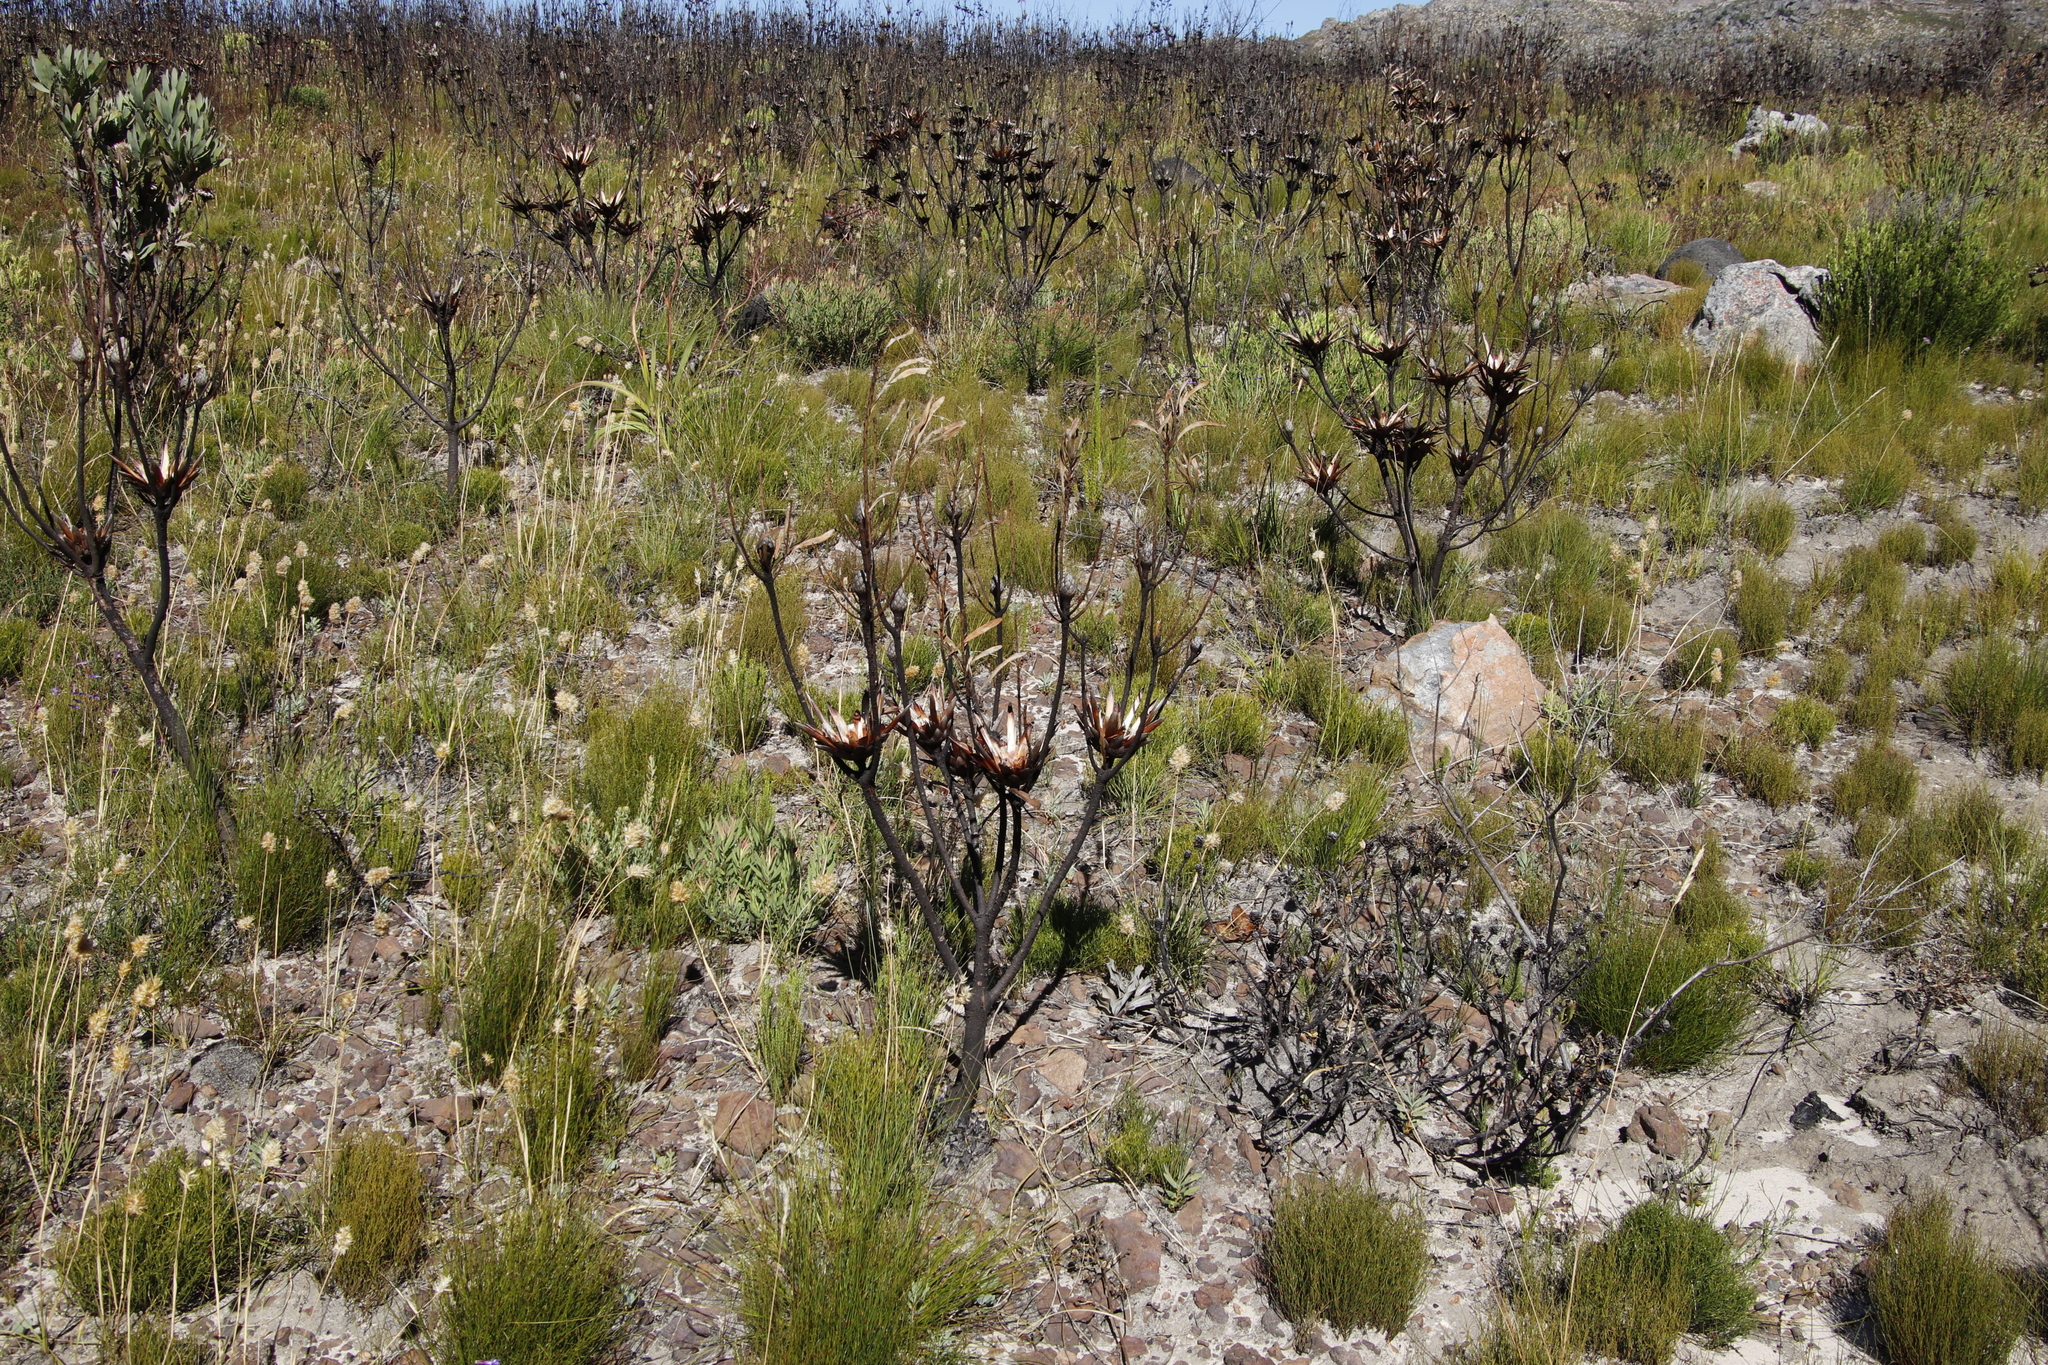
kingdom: Plantae
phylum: Tracheophyta
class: Magnoliopsida
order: Proteales
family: Proteaceae
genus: Protea
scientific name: Protea repens
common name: Sugarbush
